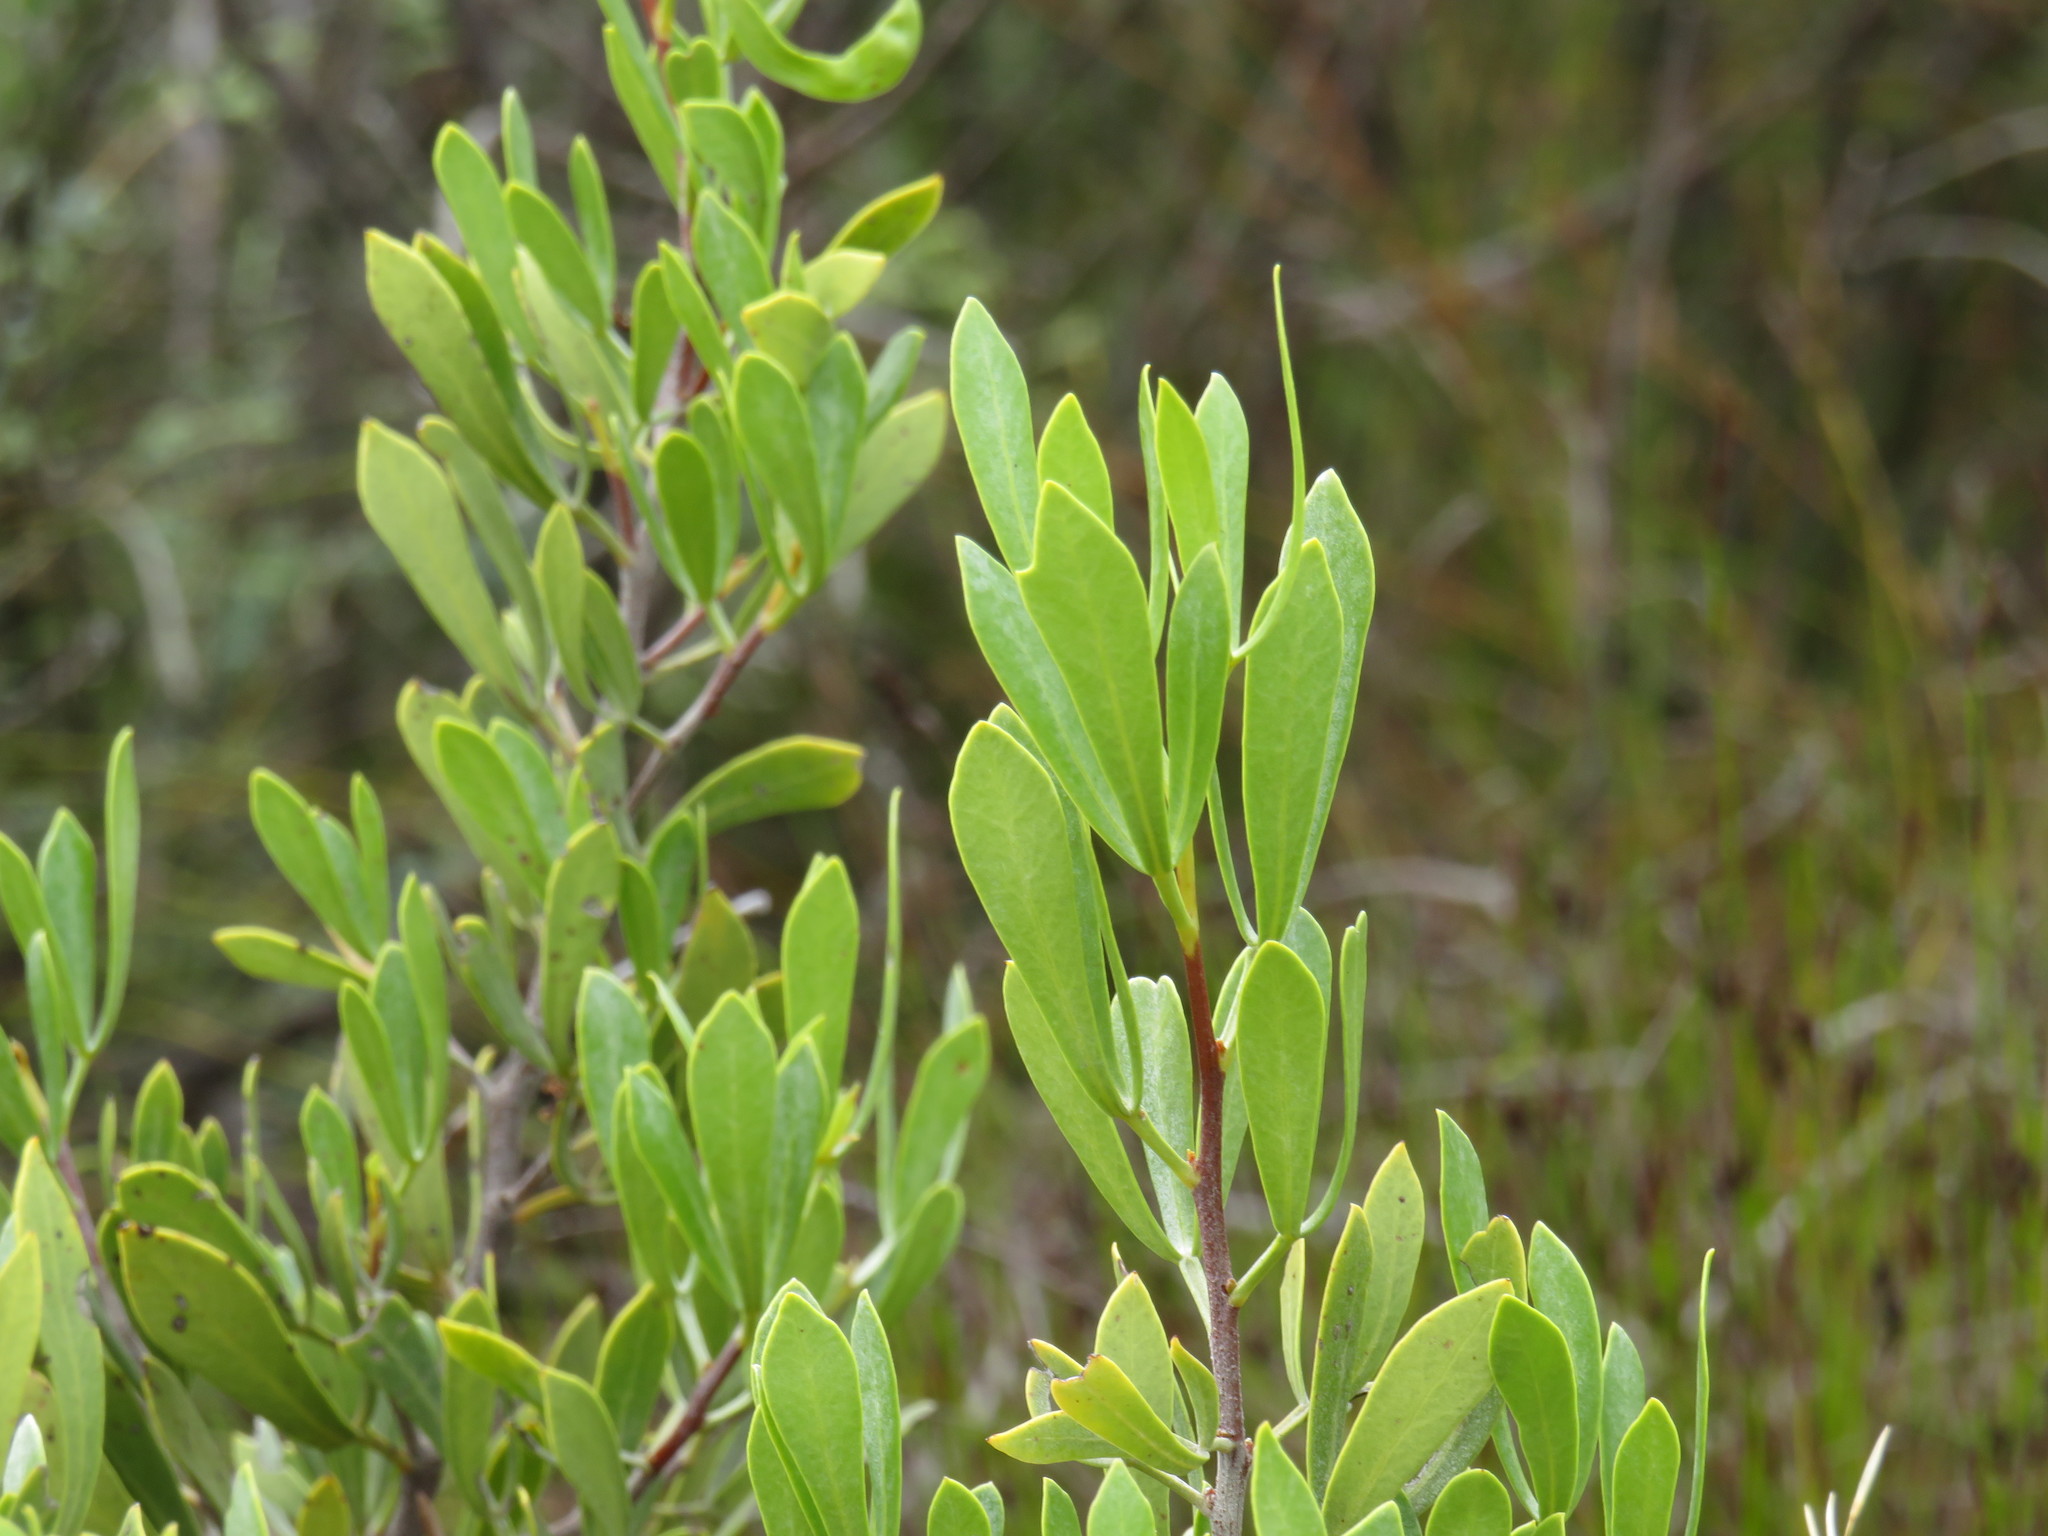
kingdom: Plantae
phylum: Tracheophyta
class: Magnoliopsida
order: Sapindales
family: Anacardiaceae
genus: Searsia
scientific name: Searsia rimosa
